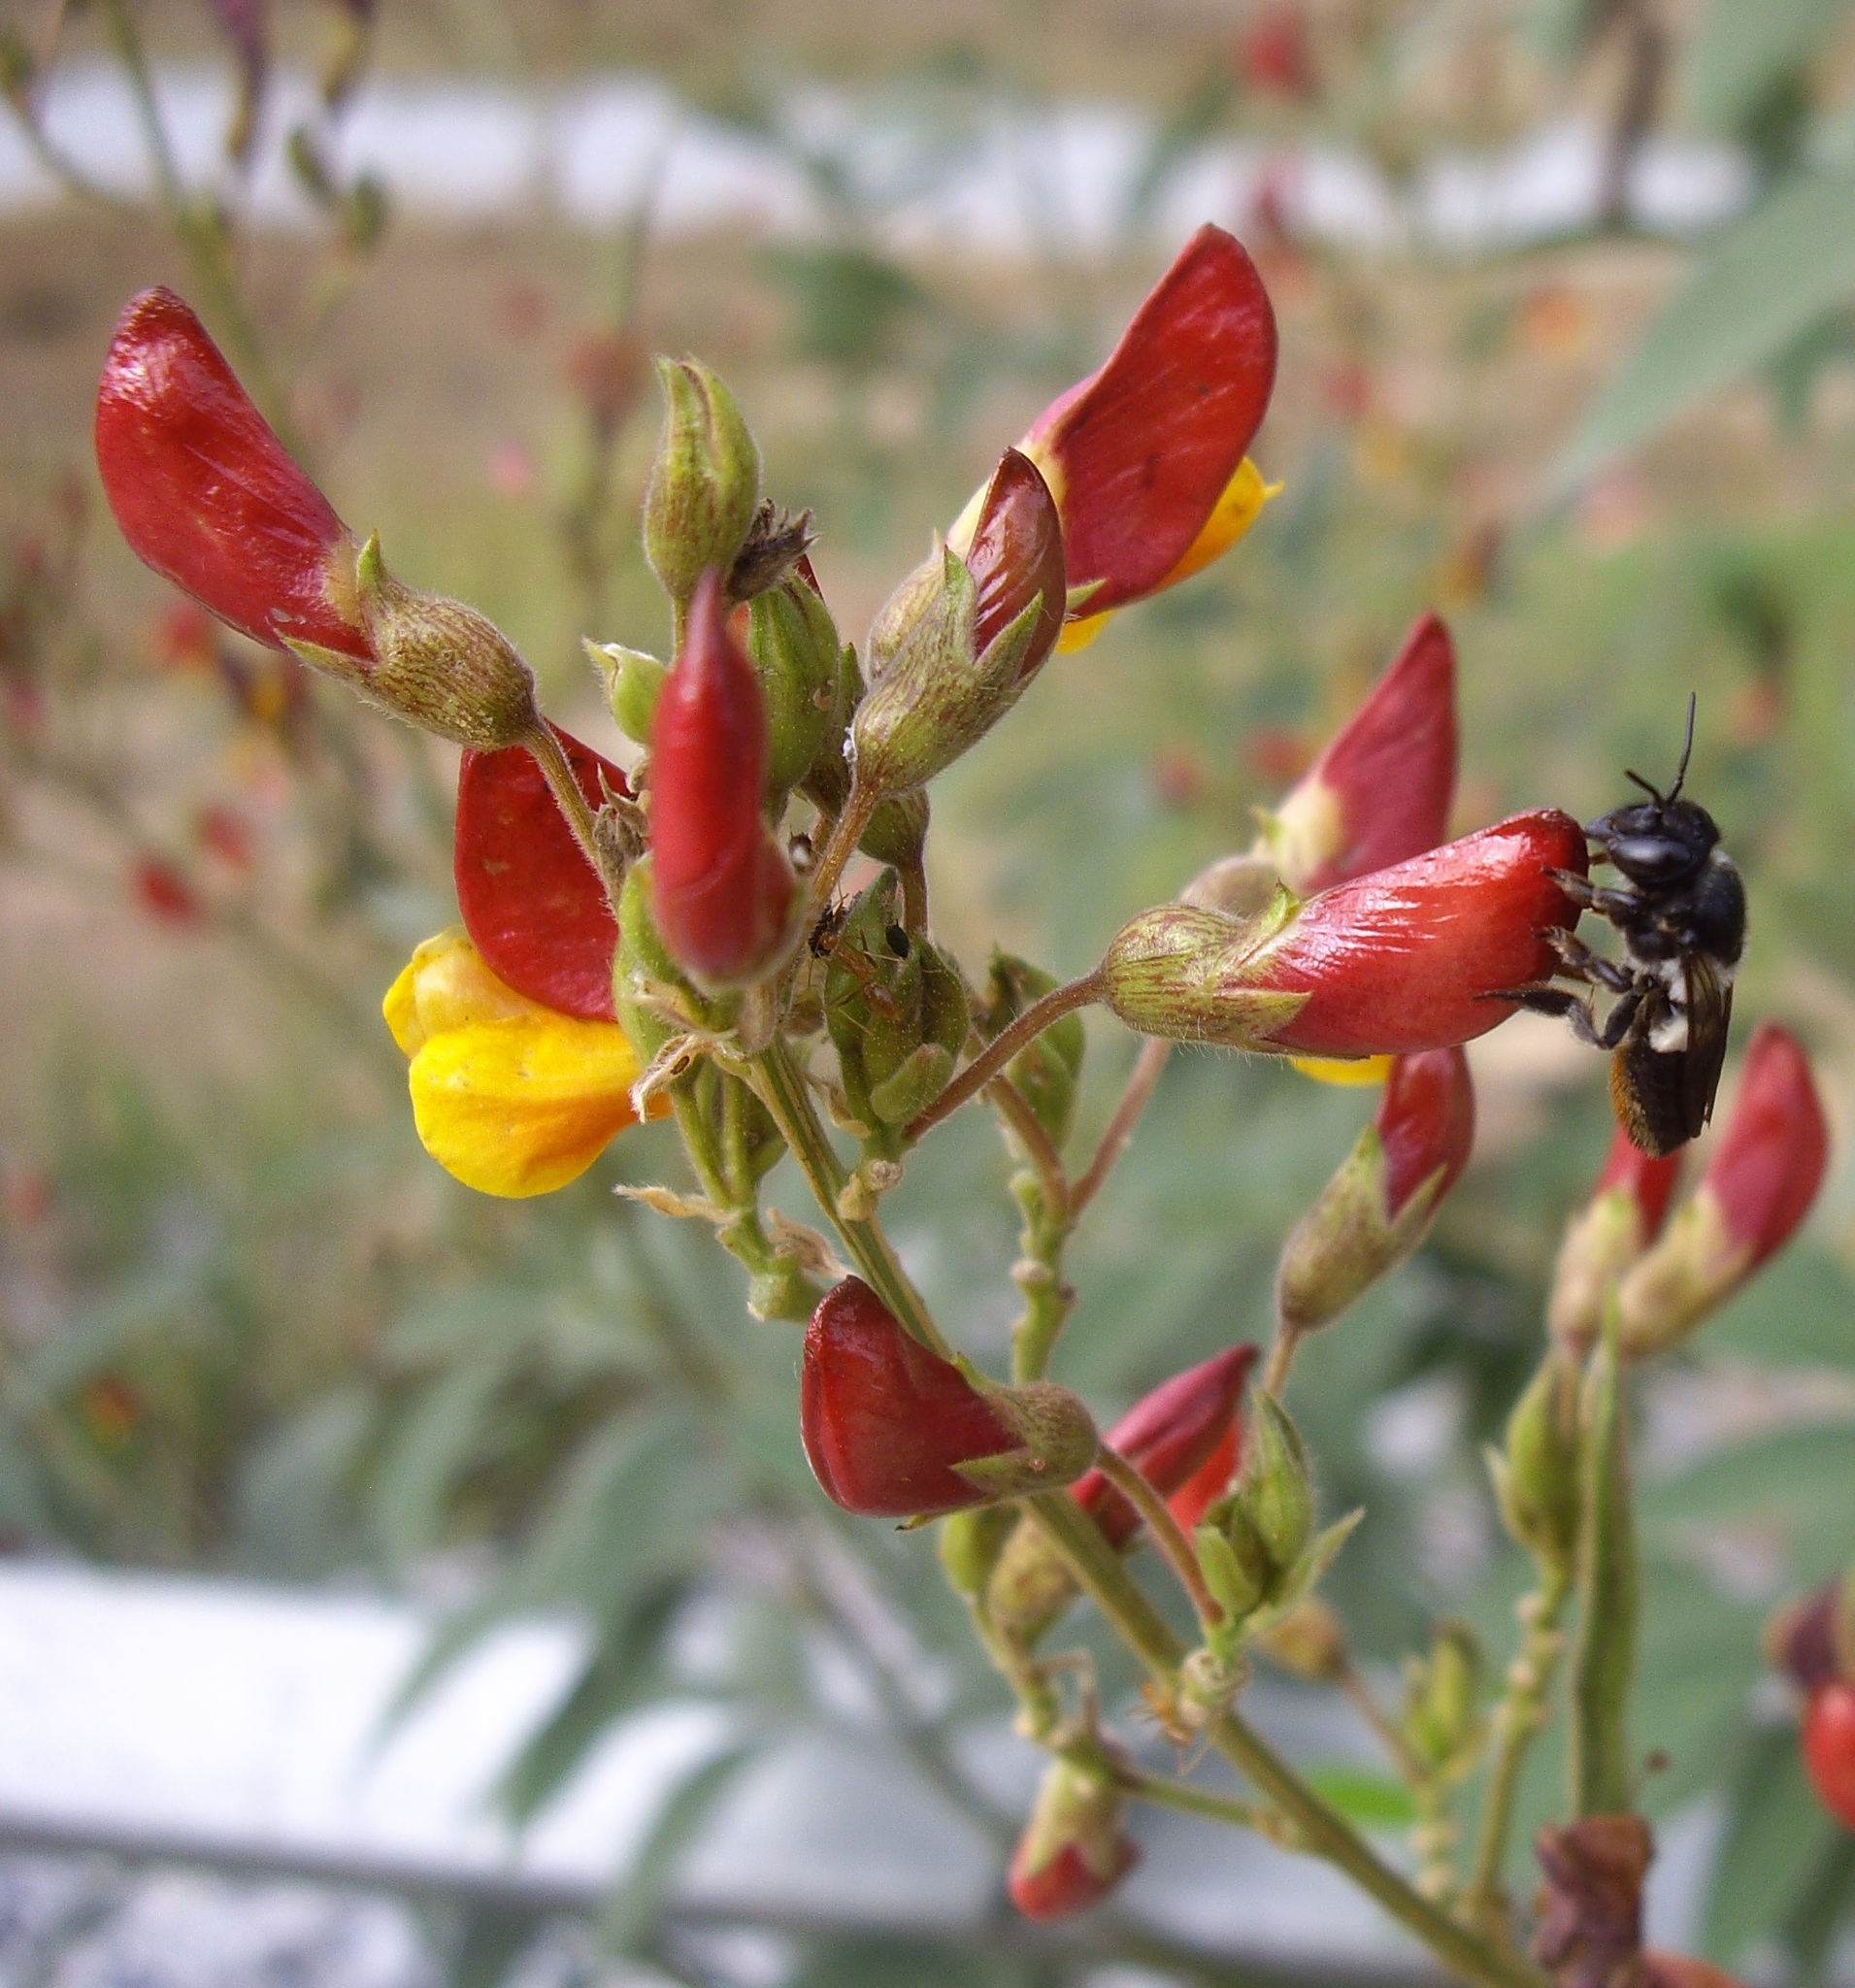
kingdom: Plantae
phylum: Tracheophyta
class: Magnoliopsida
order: Fabales
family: Fabaceae
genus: Cajanus
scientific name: Cajanus cajan
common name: Pigeonpea
